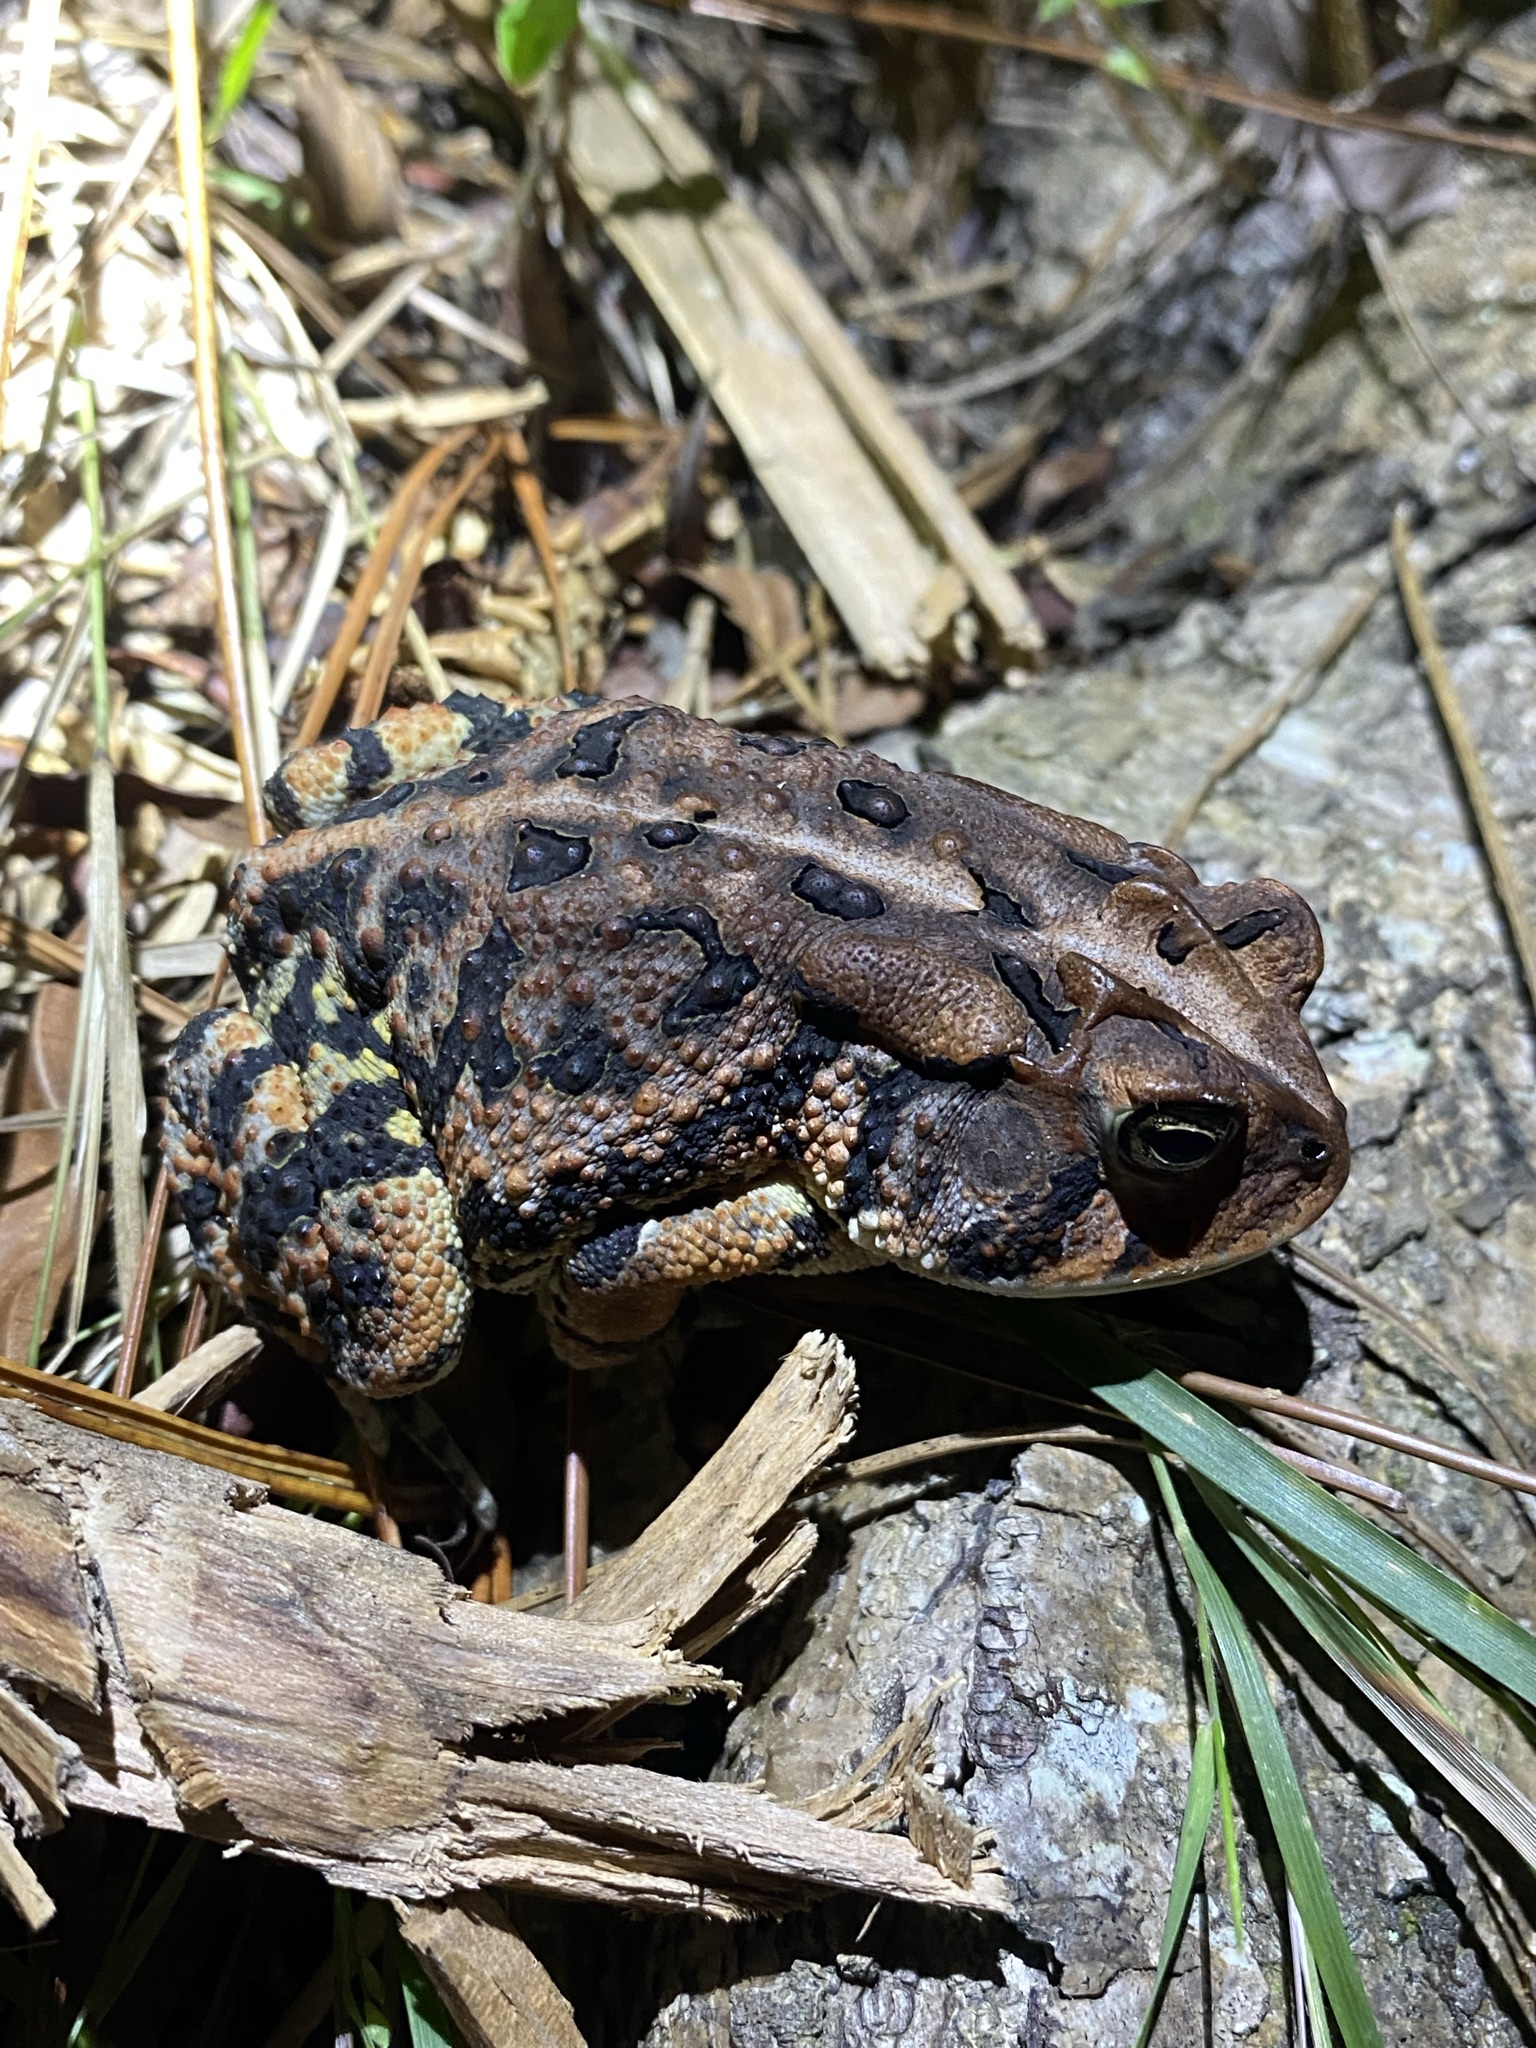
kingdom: Animalia
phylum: Chordata
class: Amphibia
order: Anura
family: Bufonidae
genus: Anaxyrus
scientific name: Anaxyrus terrestris
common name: Southern toad
